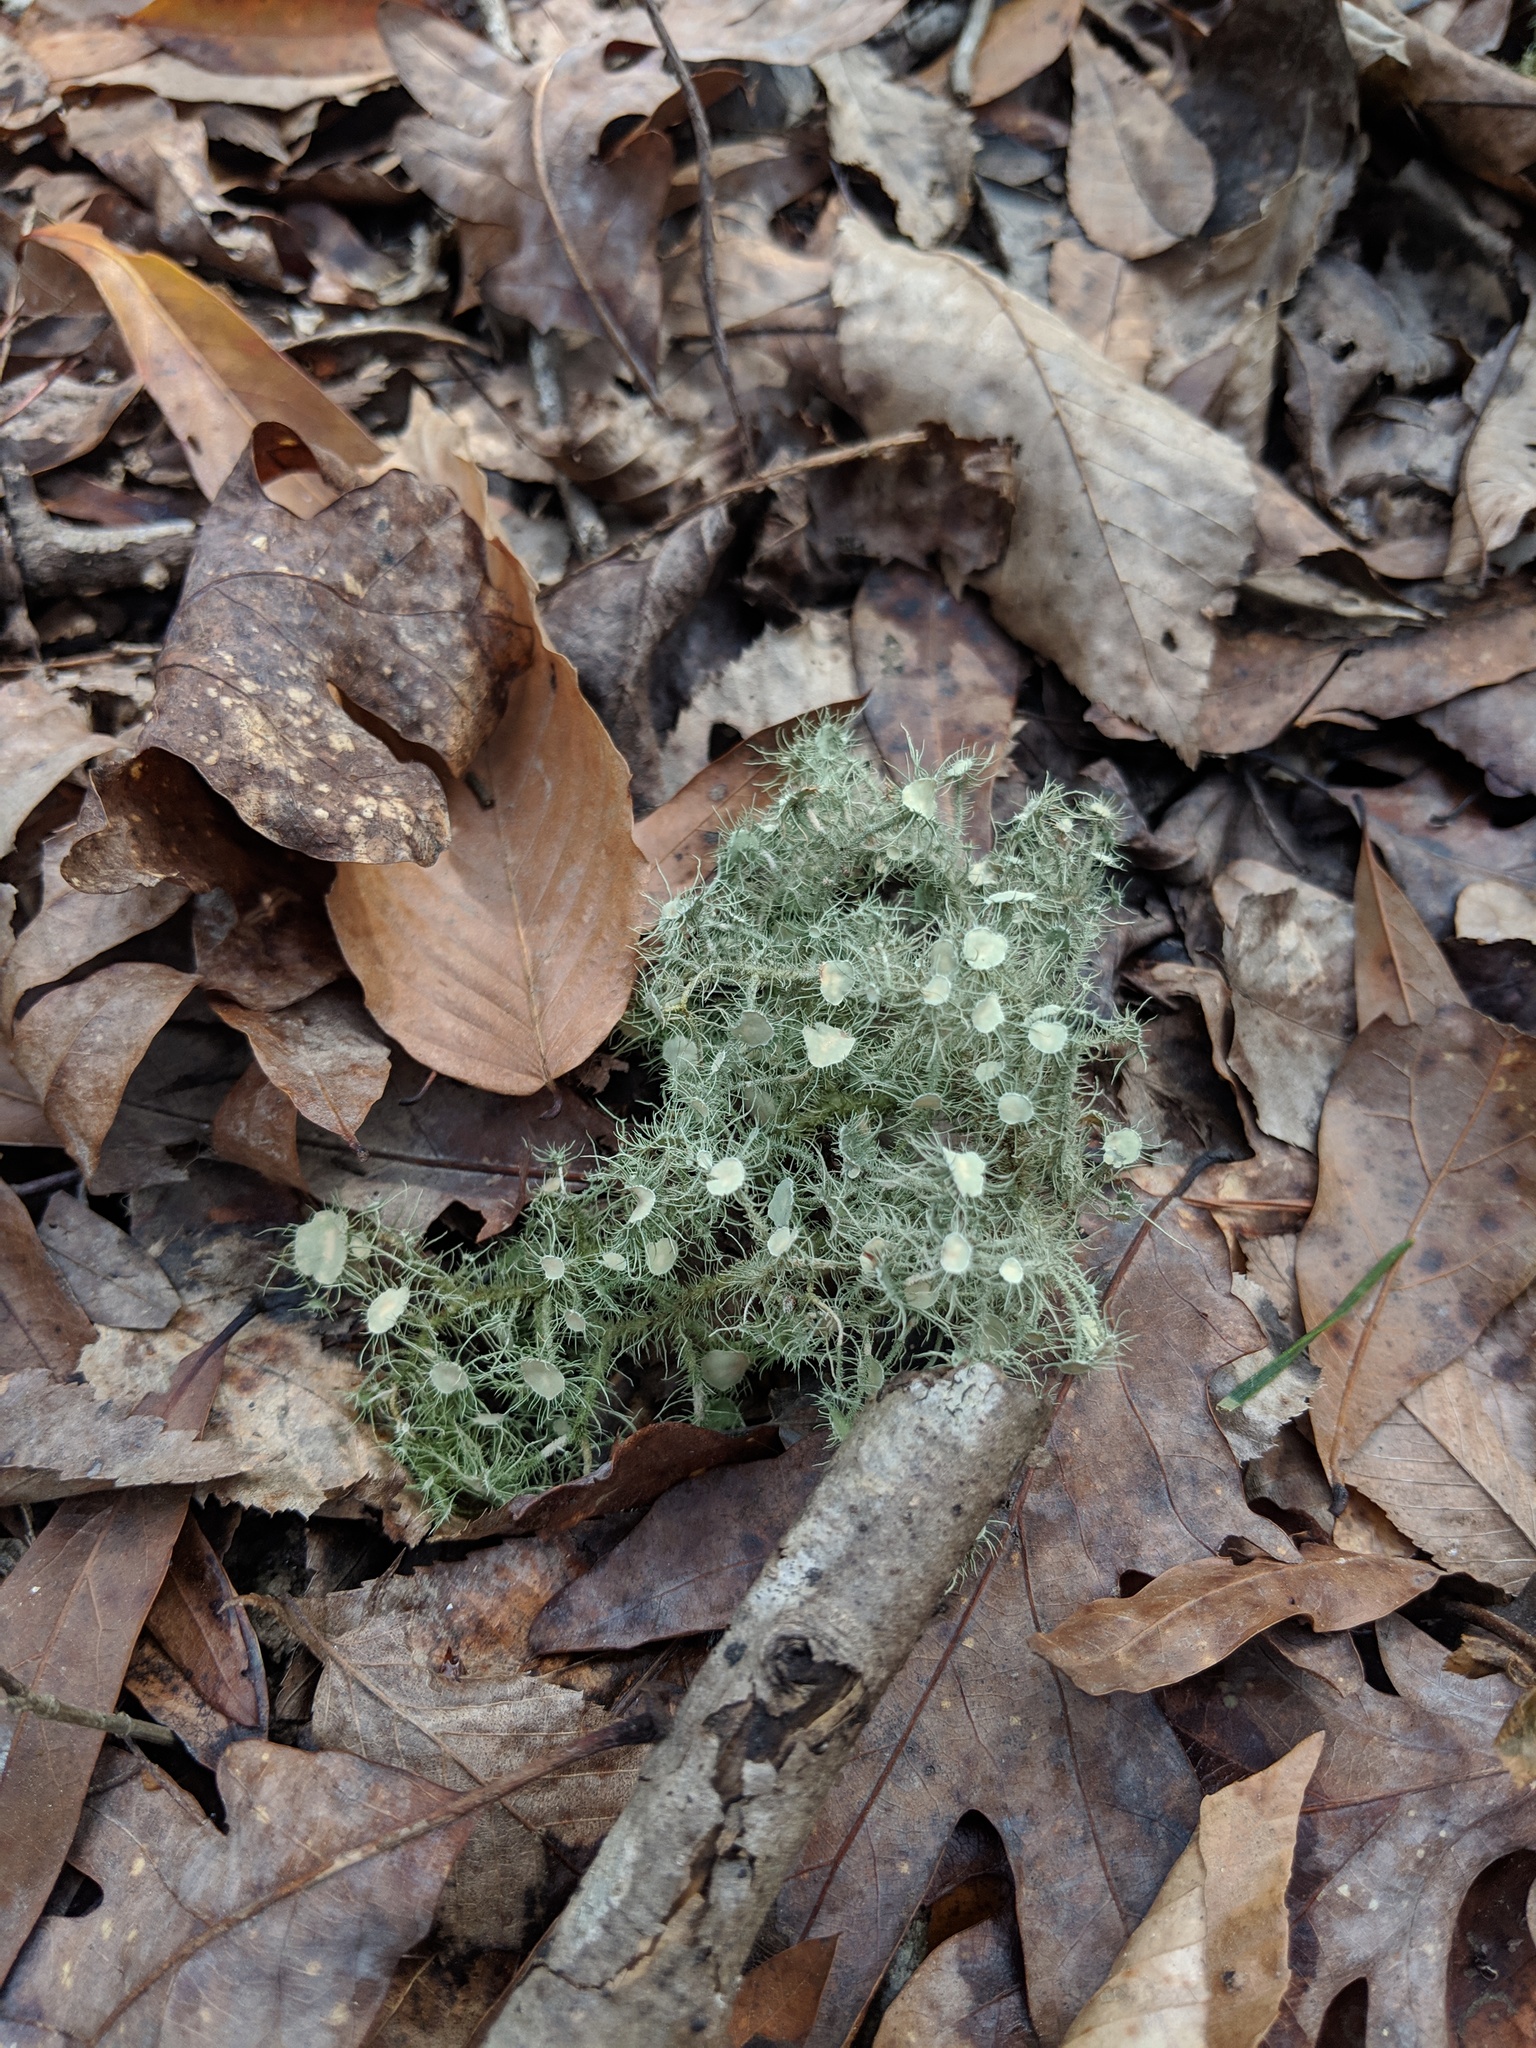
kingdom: Fungi
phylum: Ascomycota
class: Lecanoromycetes
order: Lecanorales
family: Parmeliaceae
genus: Usnea
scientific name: Usnea strigosa
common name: Bushy beard lichen
